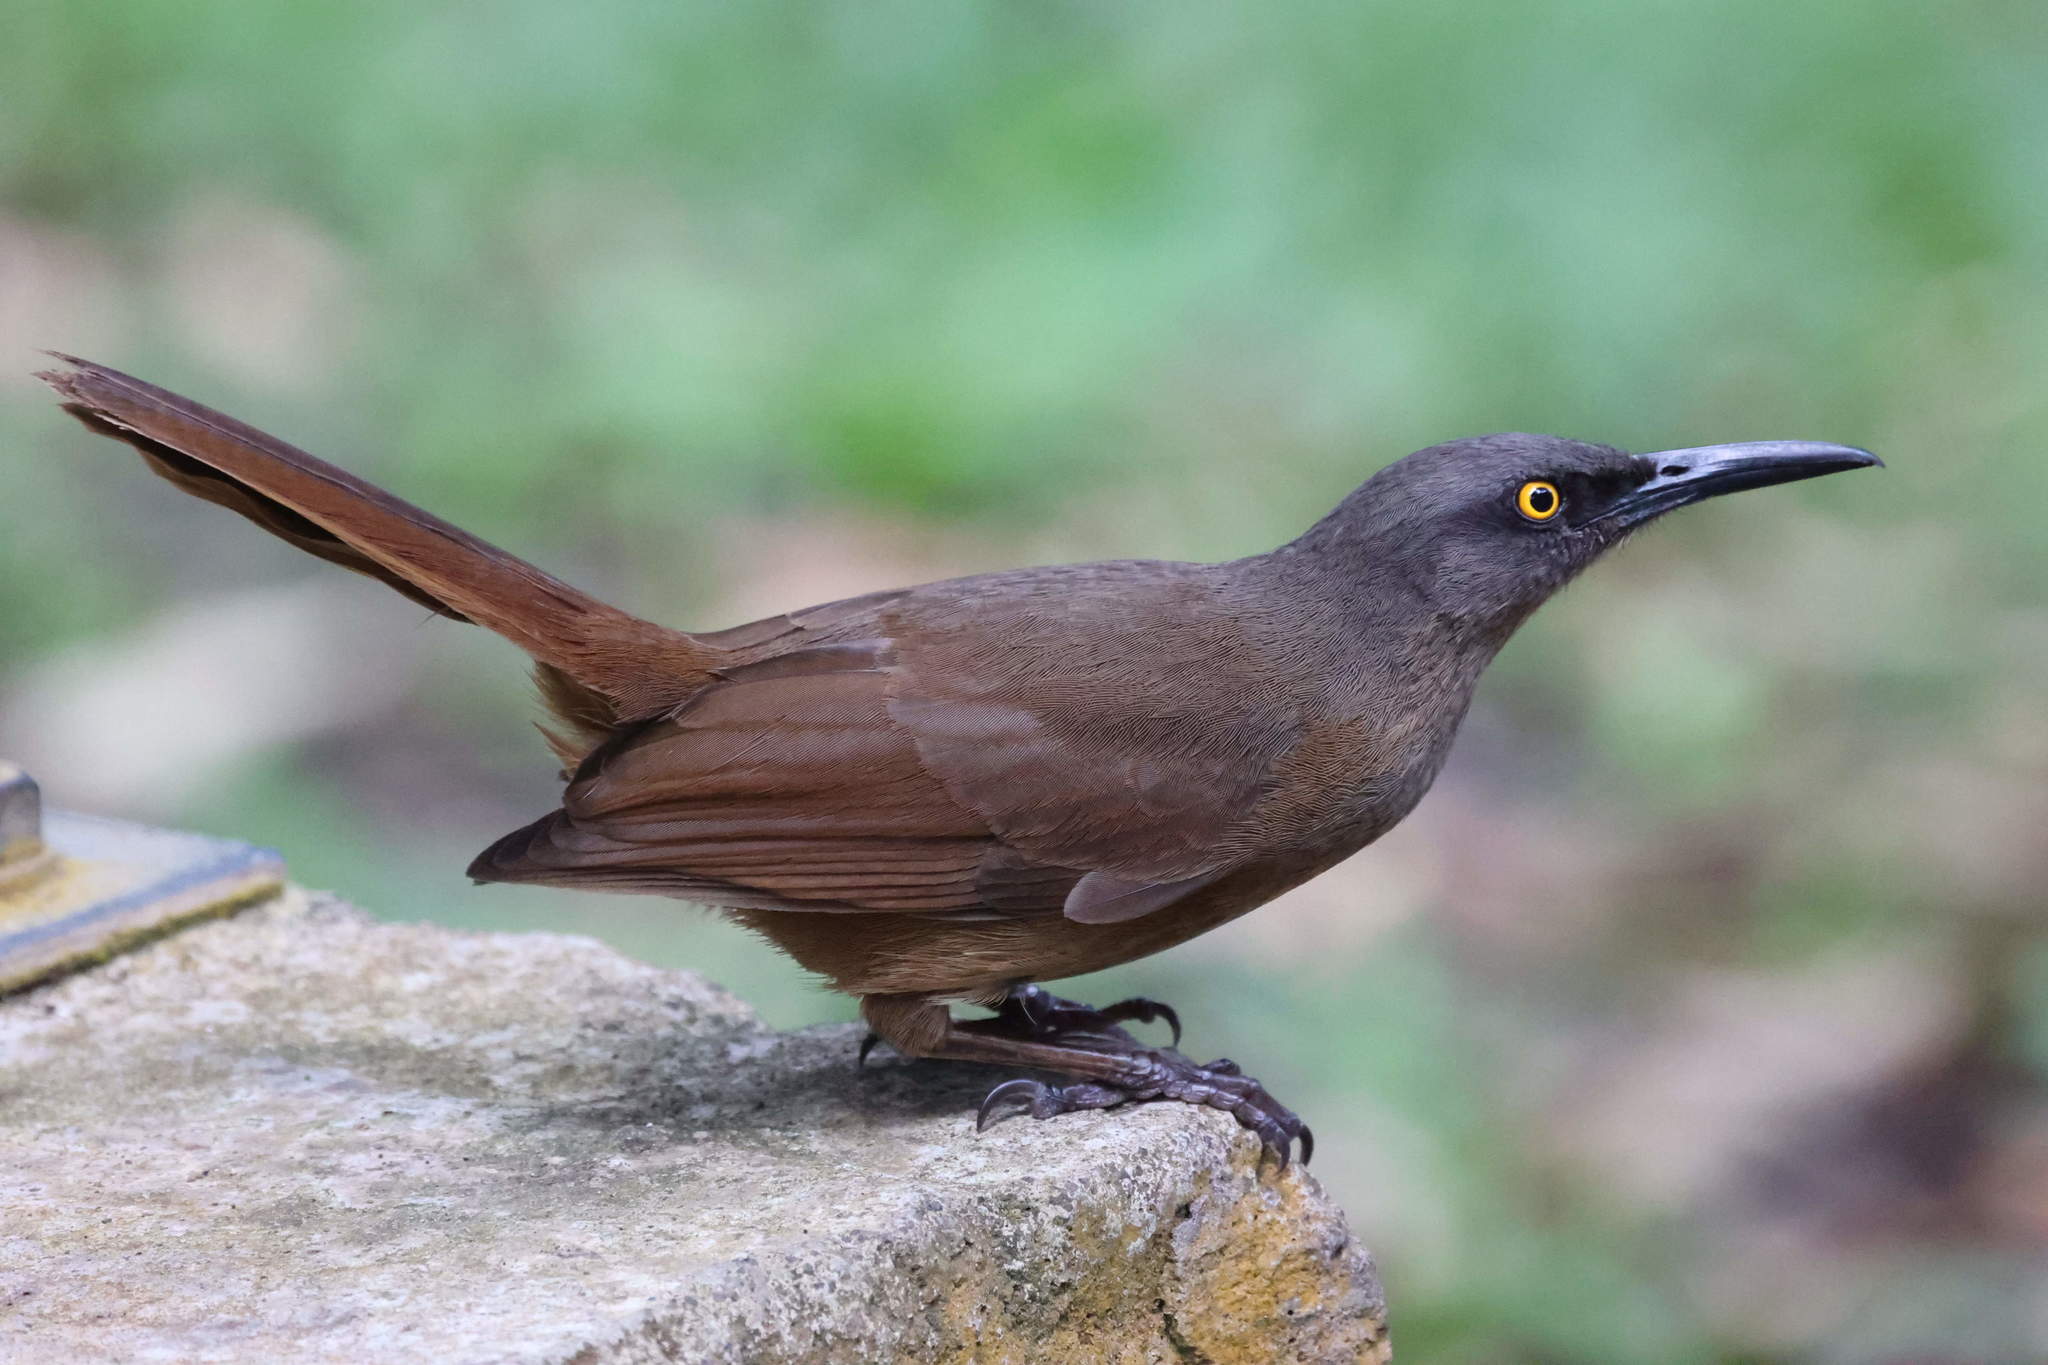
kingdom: Animalia
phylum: Chordata
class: Aves
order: Passeriformes
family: Mimidae
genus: Cinclocerthia
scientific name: Cinclocerthia ruficauda
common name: Brown trembler
